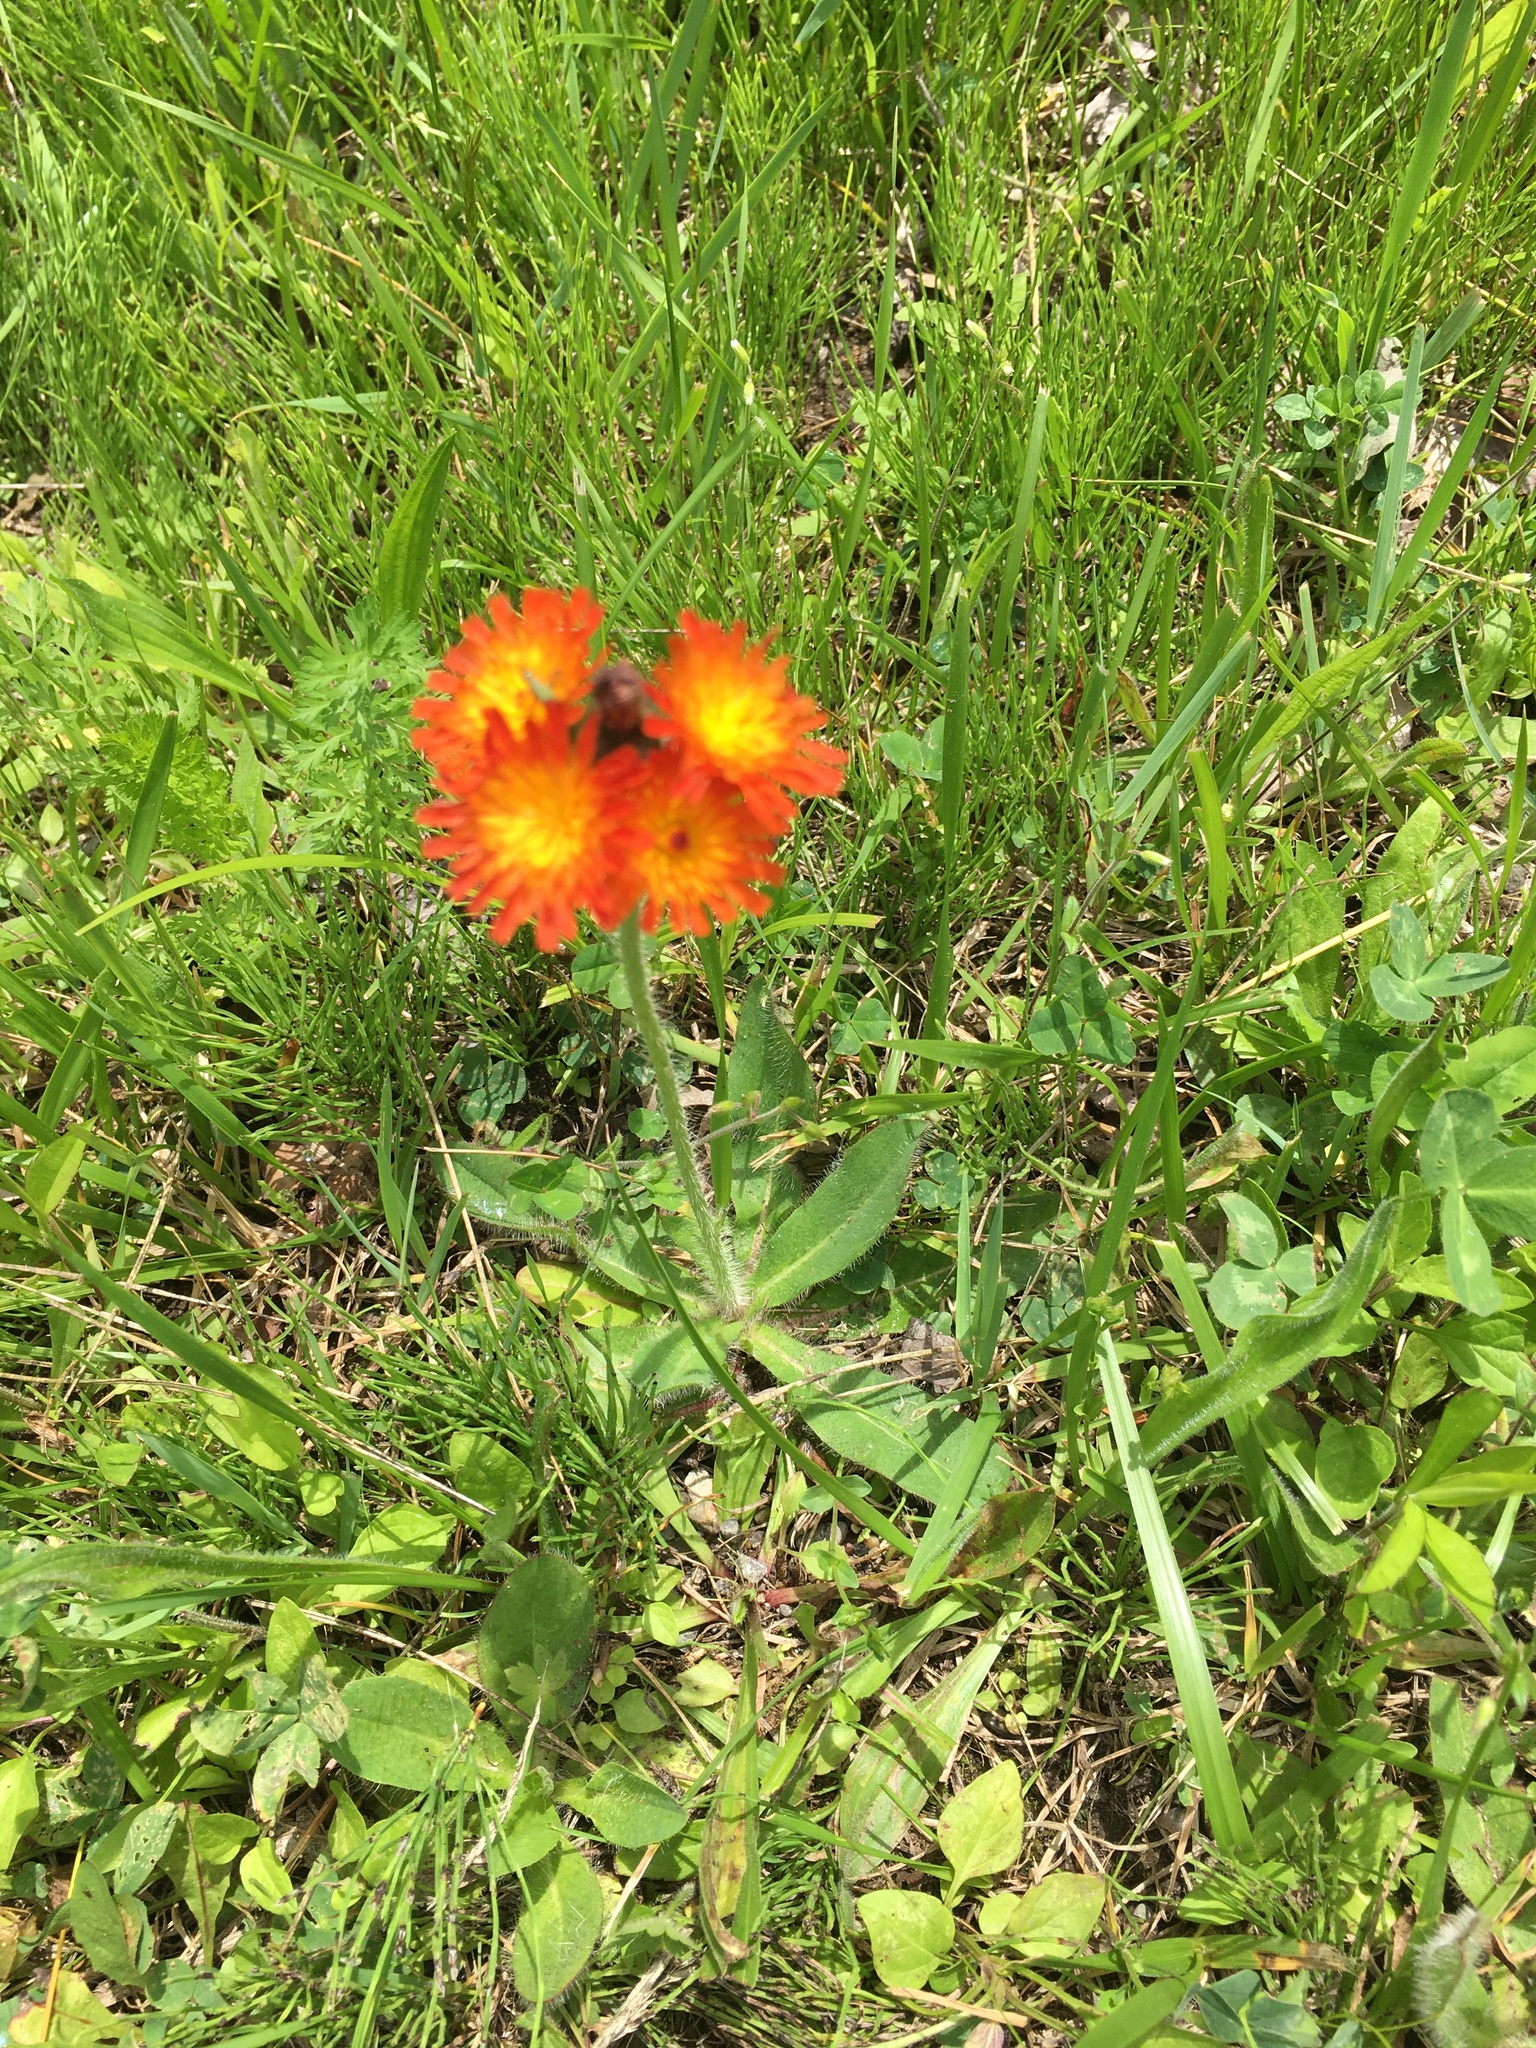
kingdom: Plantae
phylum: Tracheophyta
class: Magnoliopsida
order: Asterales
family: Asteraceae
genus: Pilosella
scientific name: Pilosella aurantiaca
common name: Fox-and-cubs
